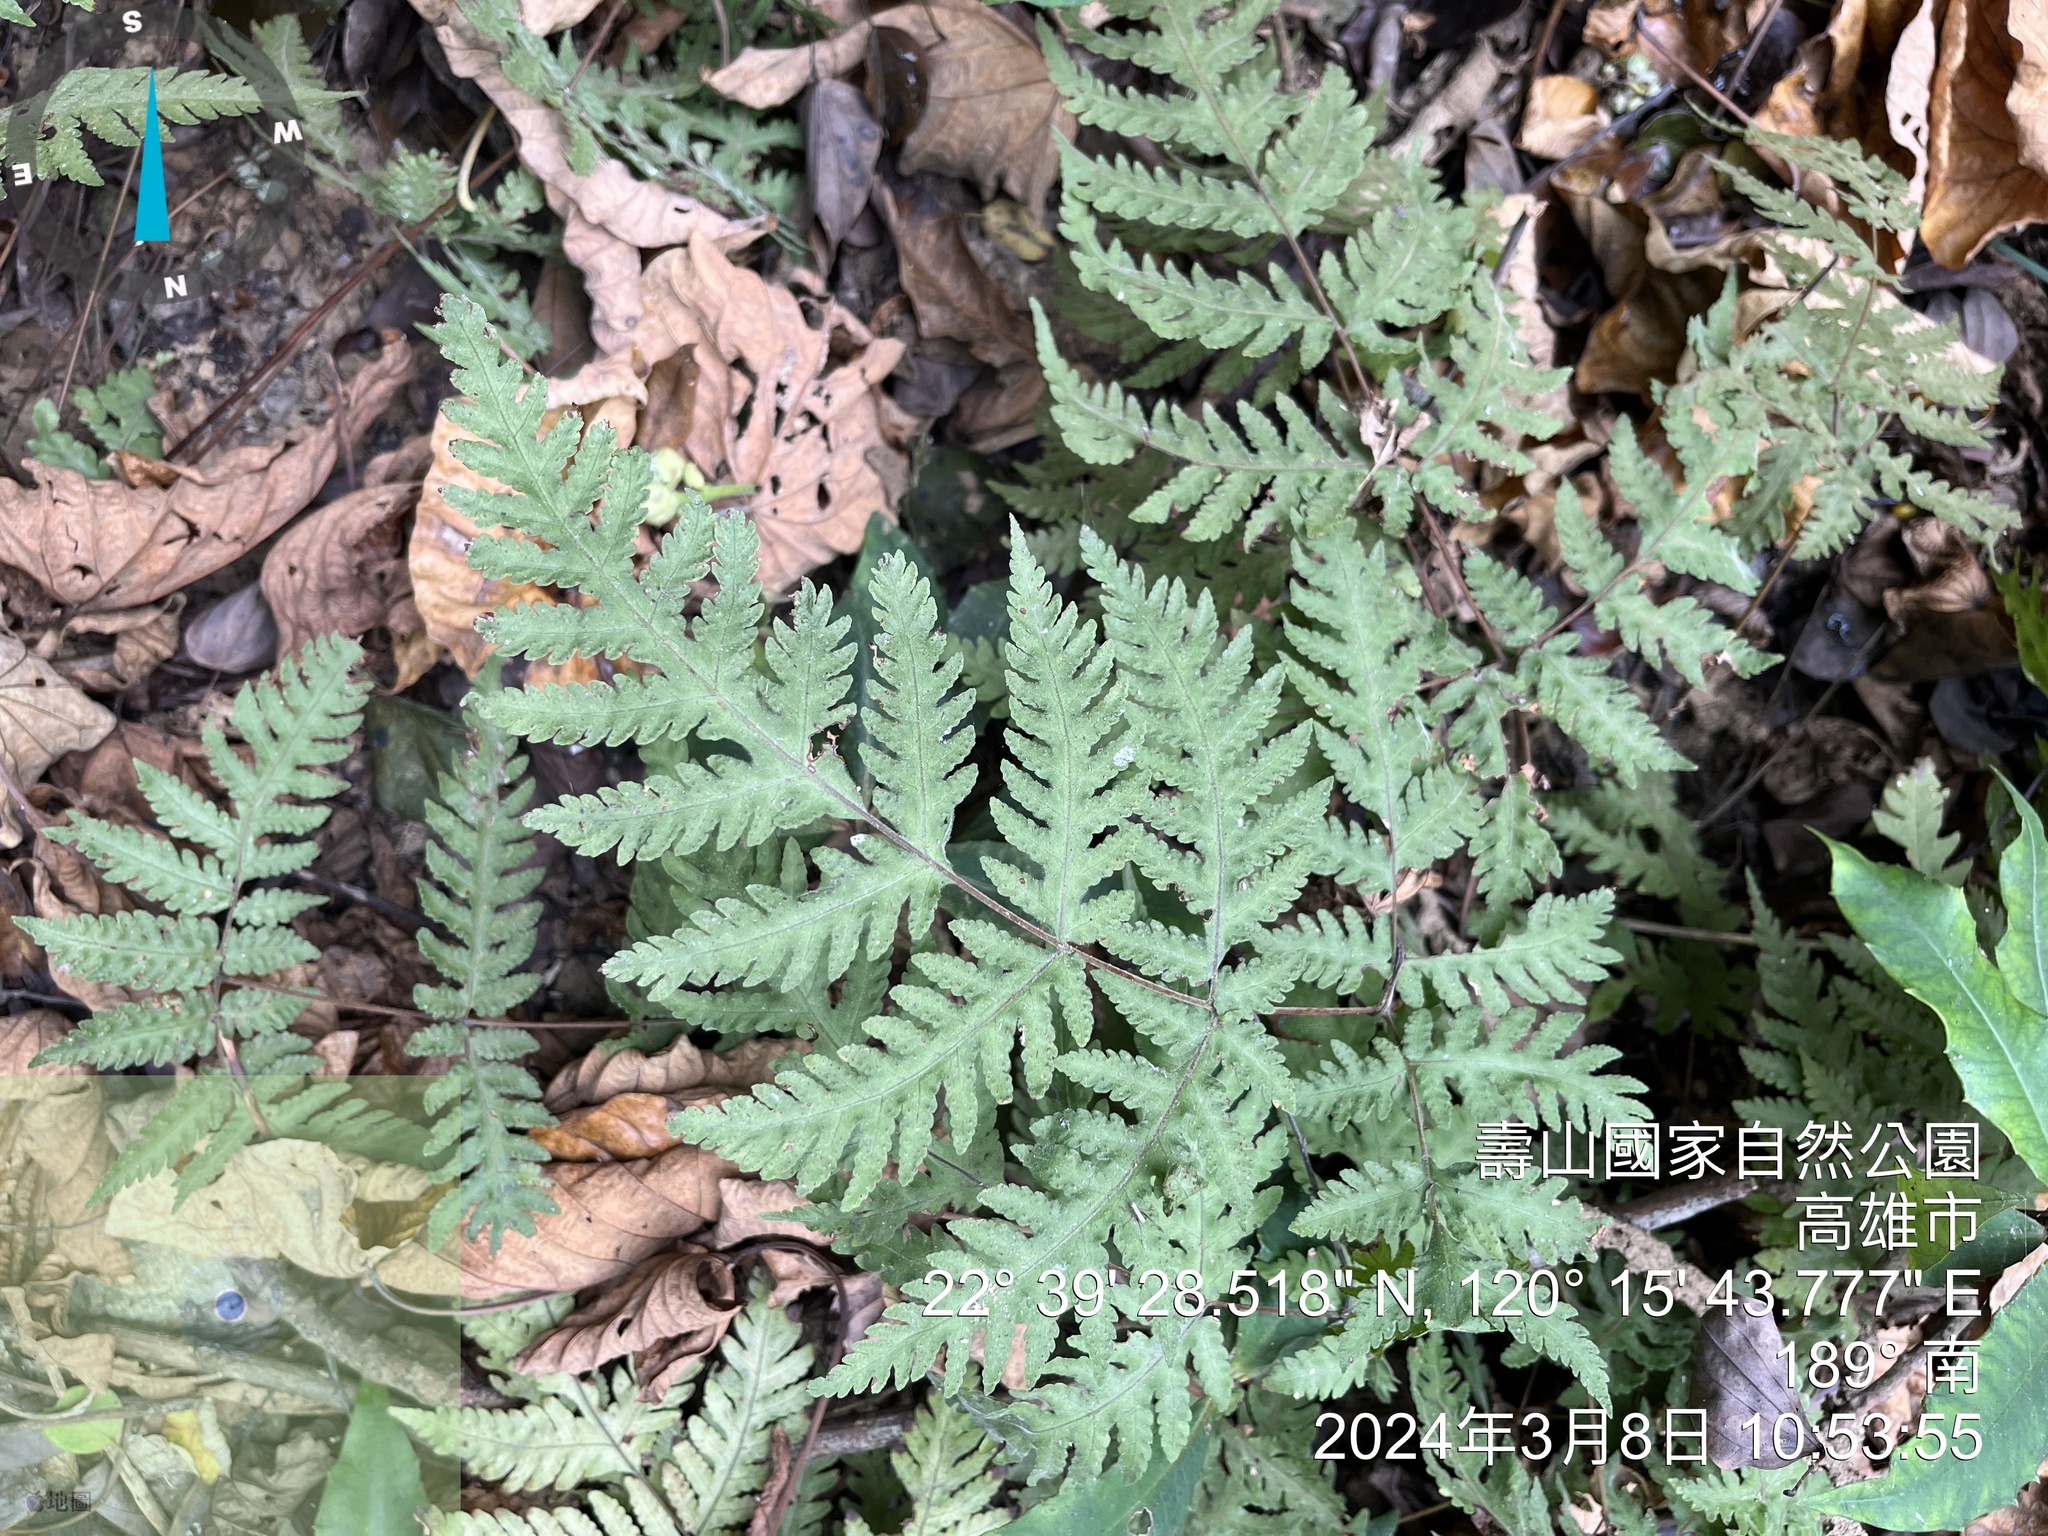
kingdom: Plantae
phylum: Tracheophyta
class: Polypodiopsida
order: Polypodiales
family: Tectariaceae
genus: Tectaria
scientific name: Tectaria membranacea
